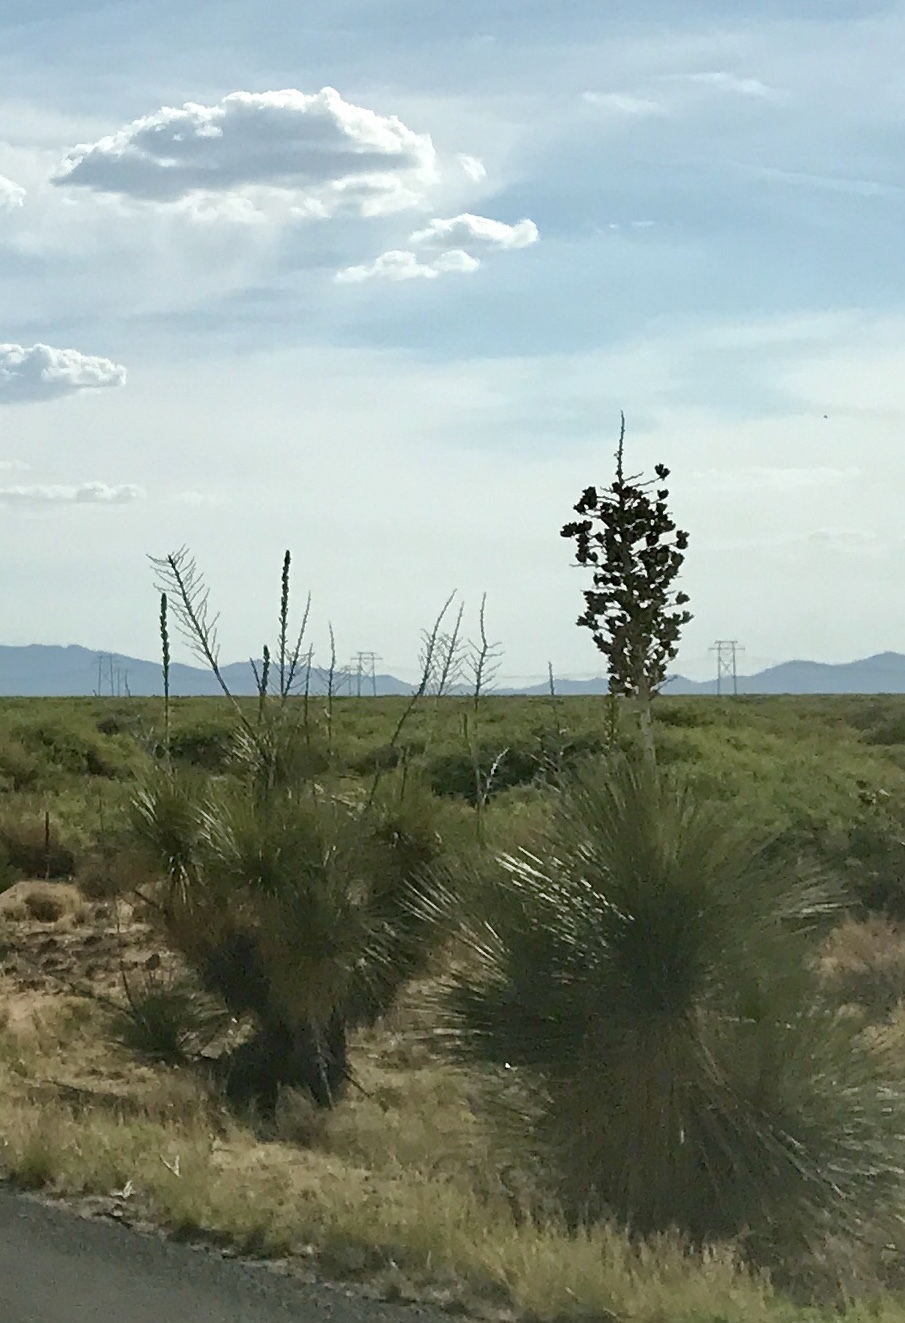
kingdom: Plantae
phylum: Tracheophyta
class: Liliopsida
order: Asparagales
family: Asparagaceae
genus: Yucca
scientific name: Yucca elata
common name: Palmella
